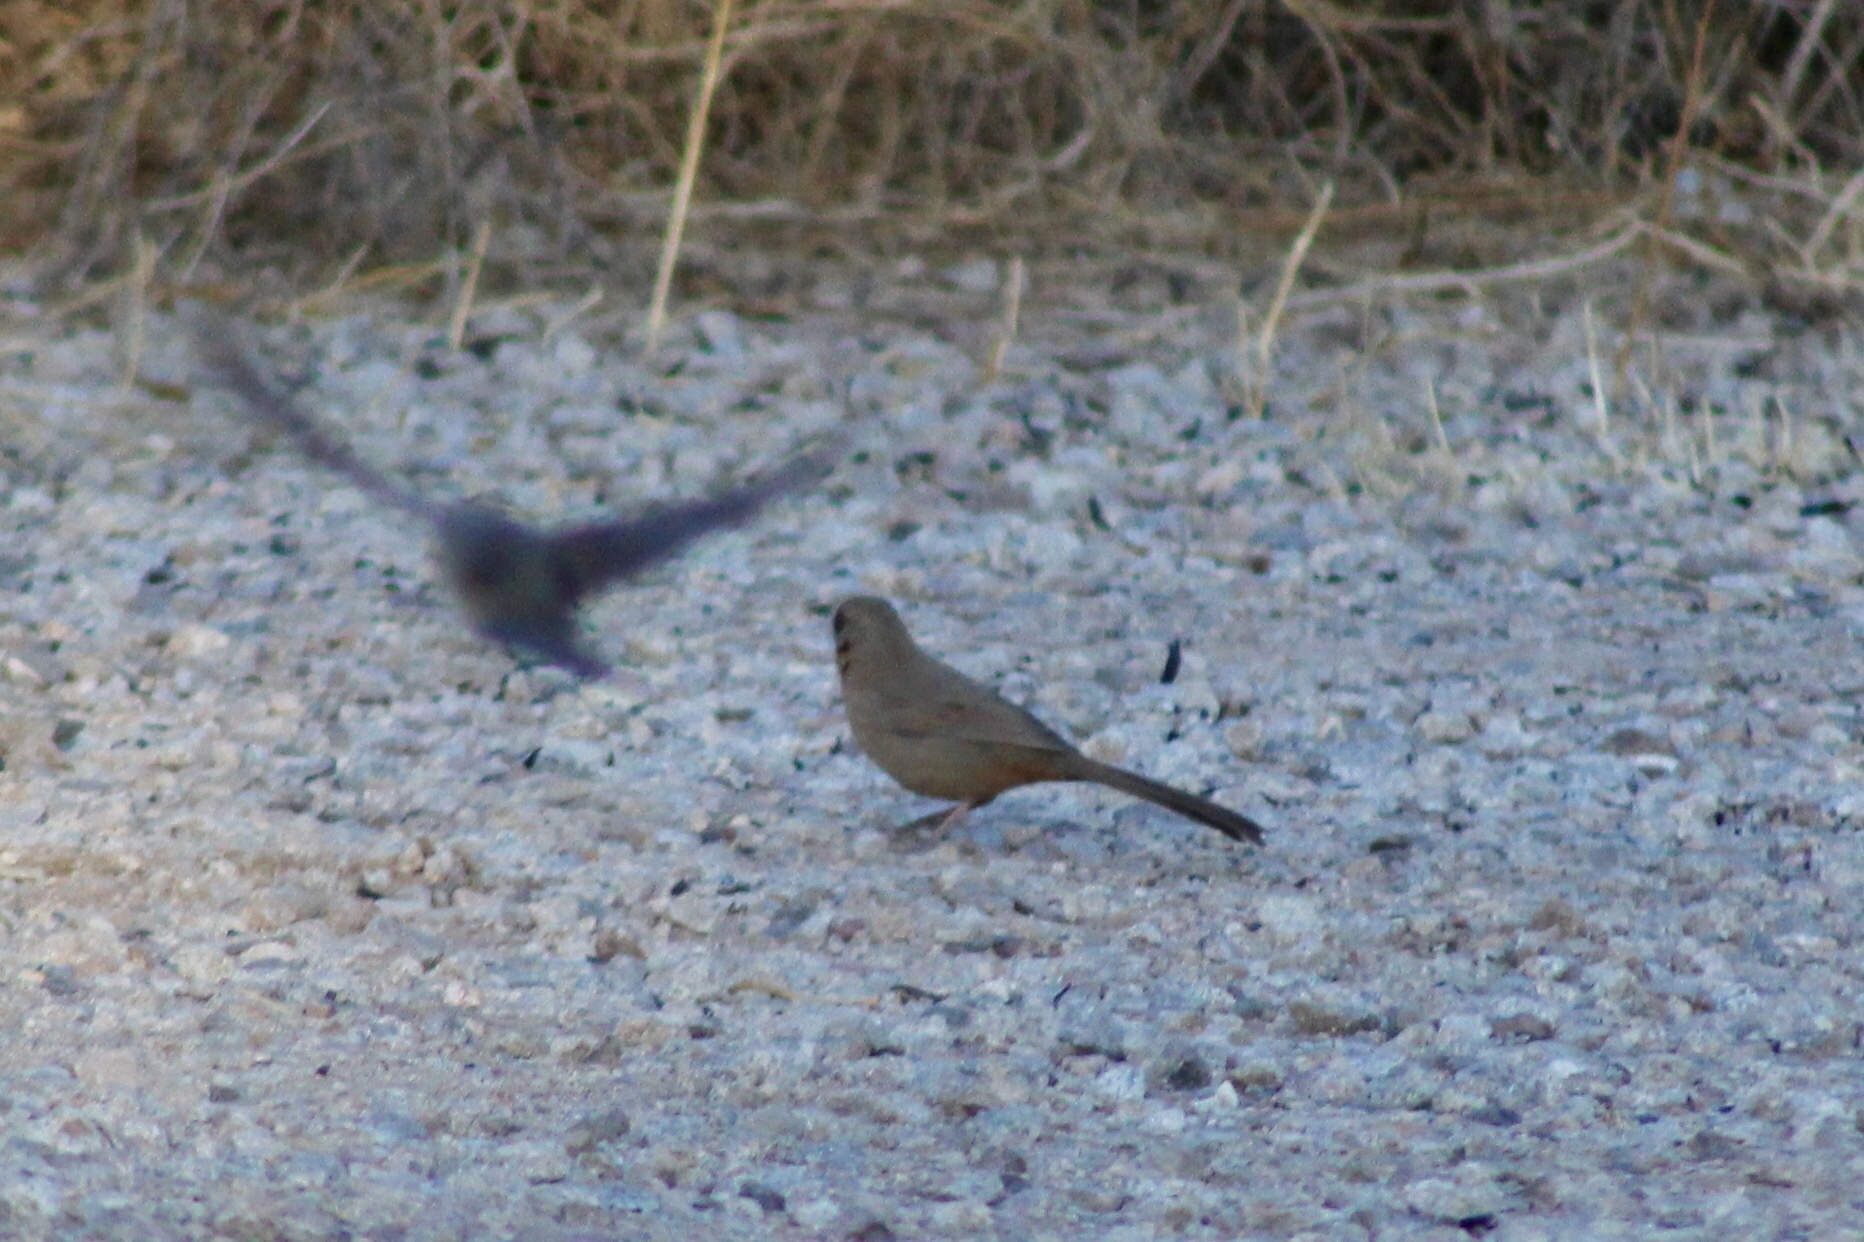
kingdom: Animalia
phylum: Chordata
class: Aves
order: Passeriformes
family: Passerellidae
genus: Melozone
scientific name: Melozone aberti
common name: Abert's towhee
